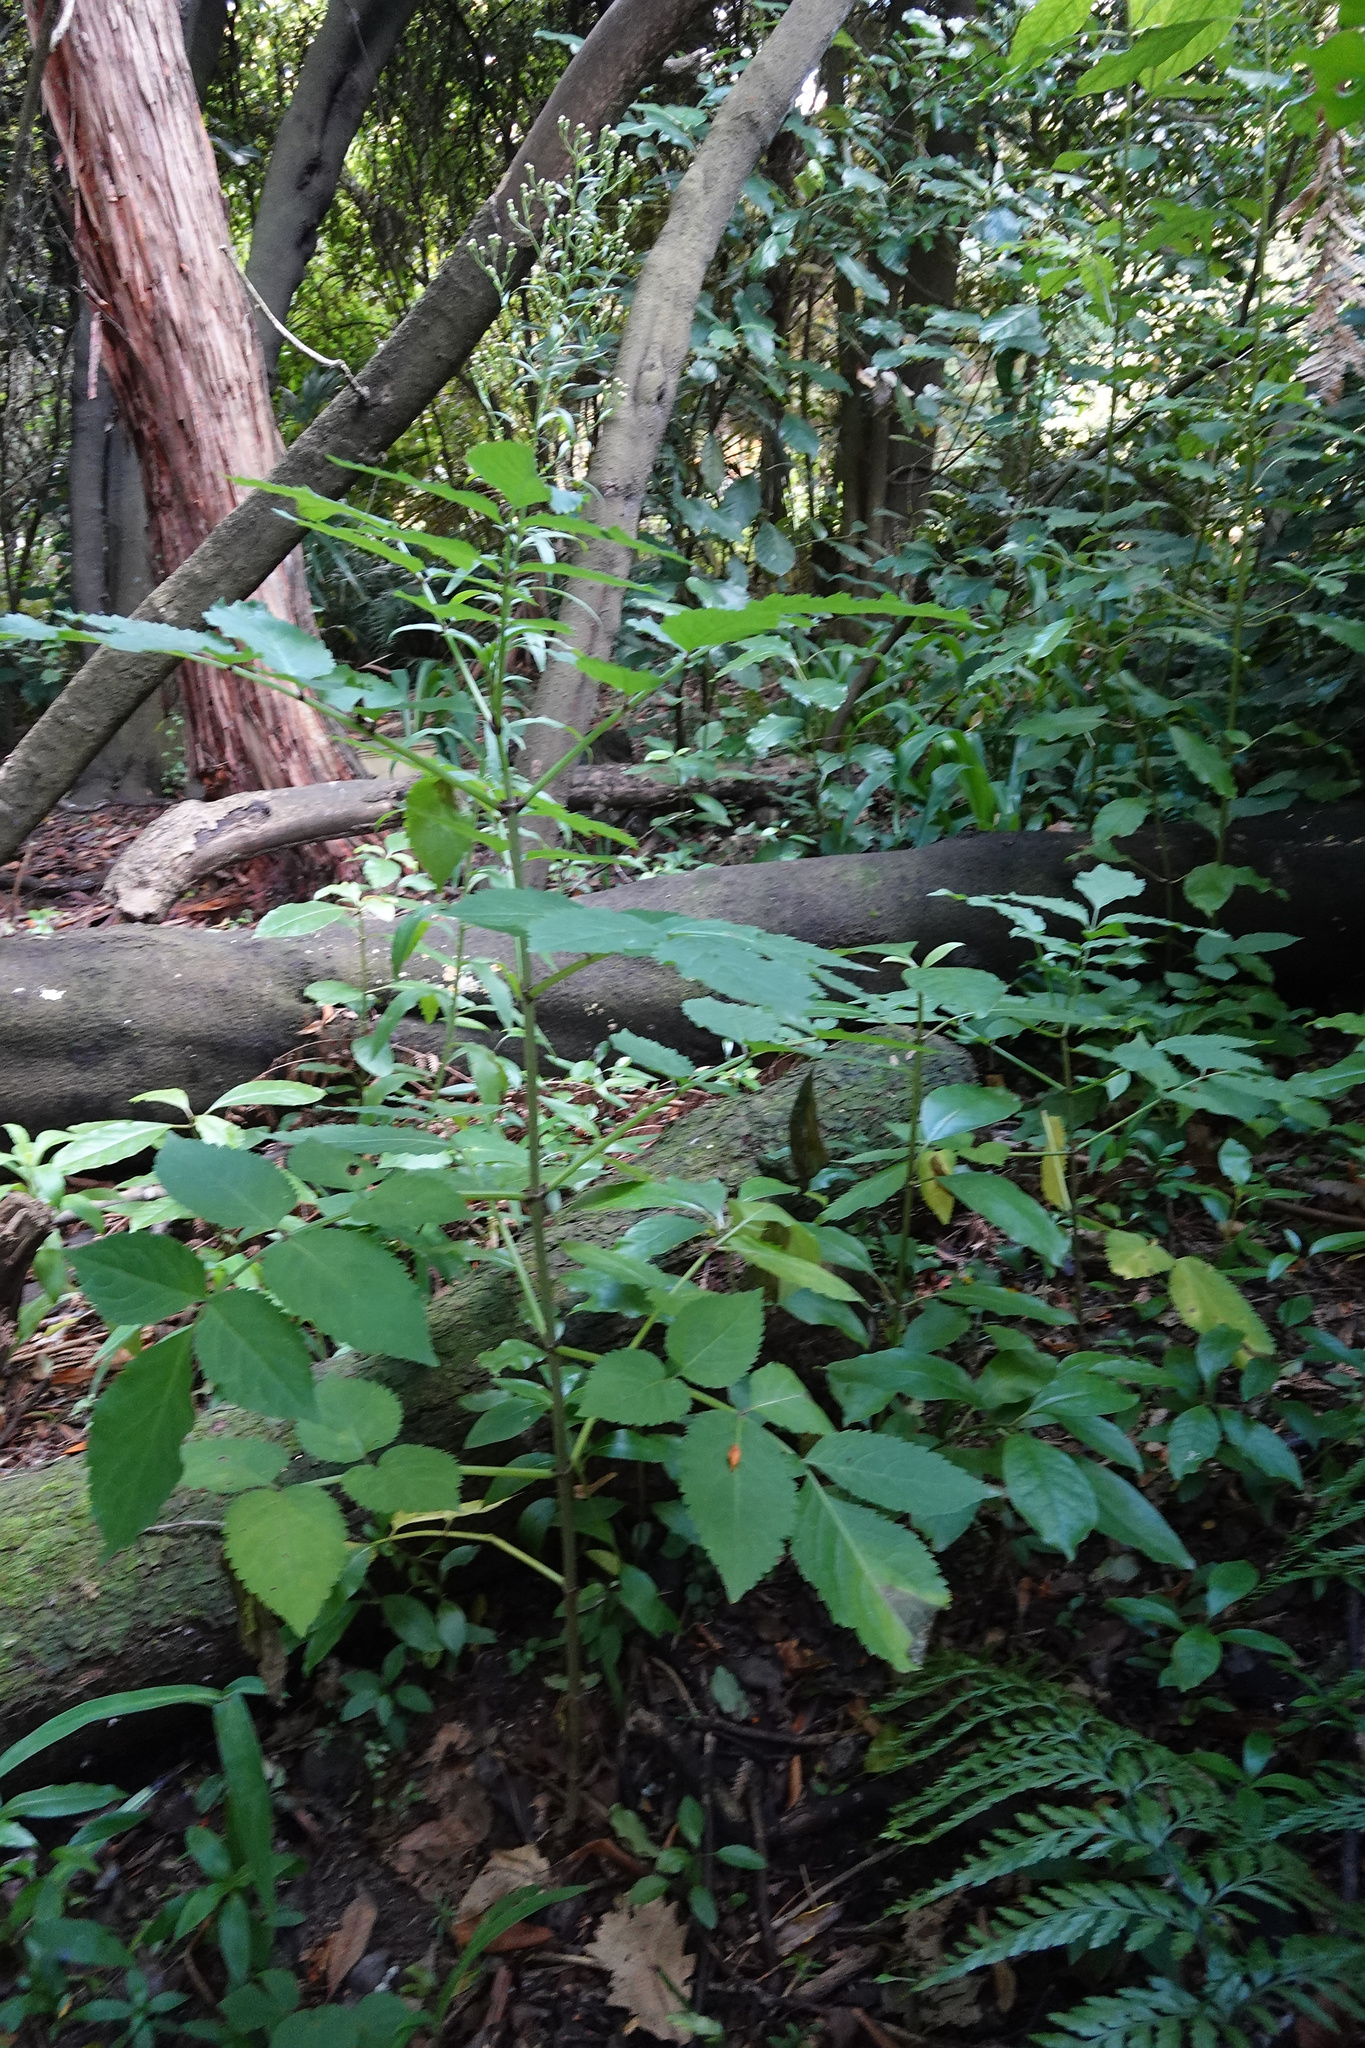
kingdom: Plantae
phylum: Tracheophyta
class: Magnoliopsida
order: Dipsacales
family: Viburnaceae
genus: Sambucus
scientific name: Sambucus nigra
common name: Elder
